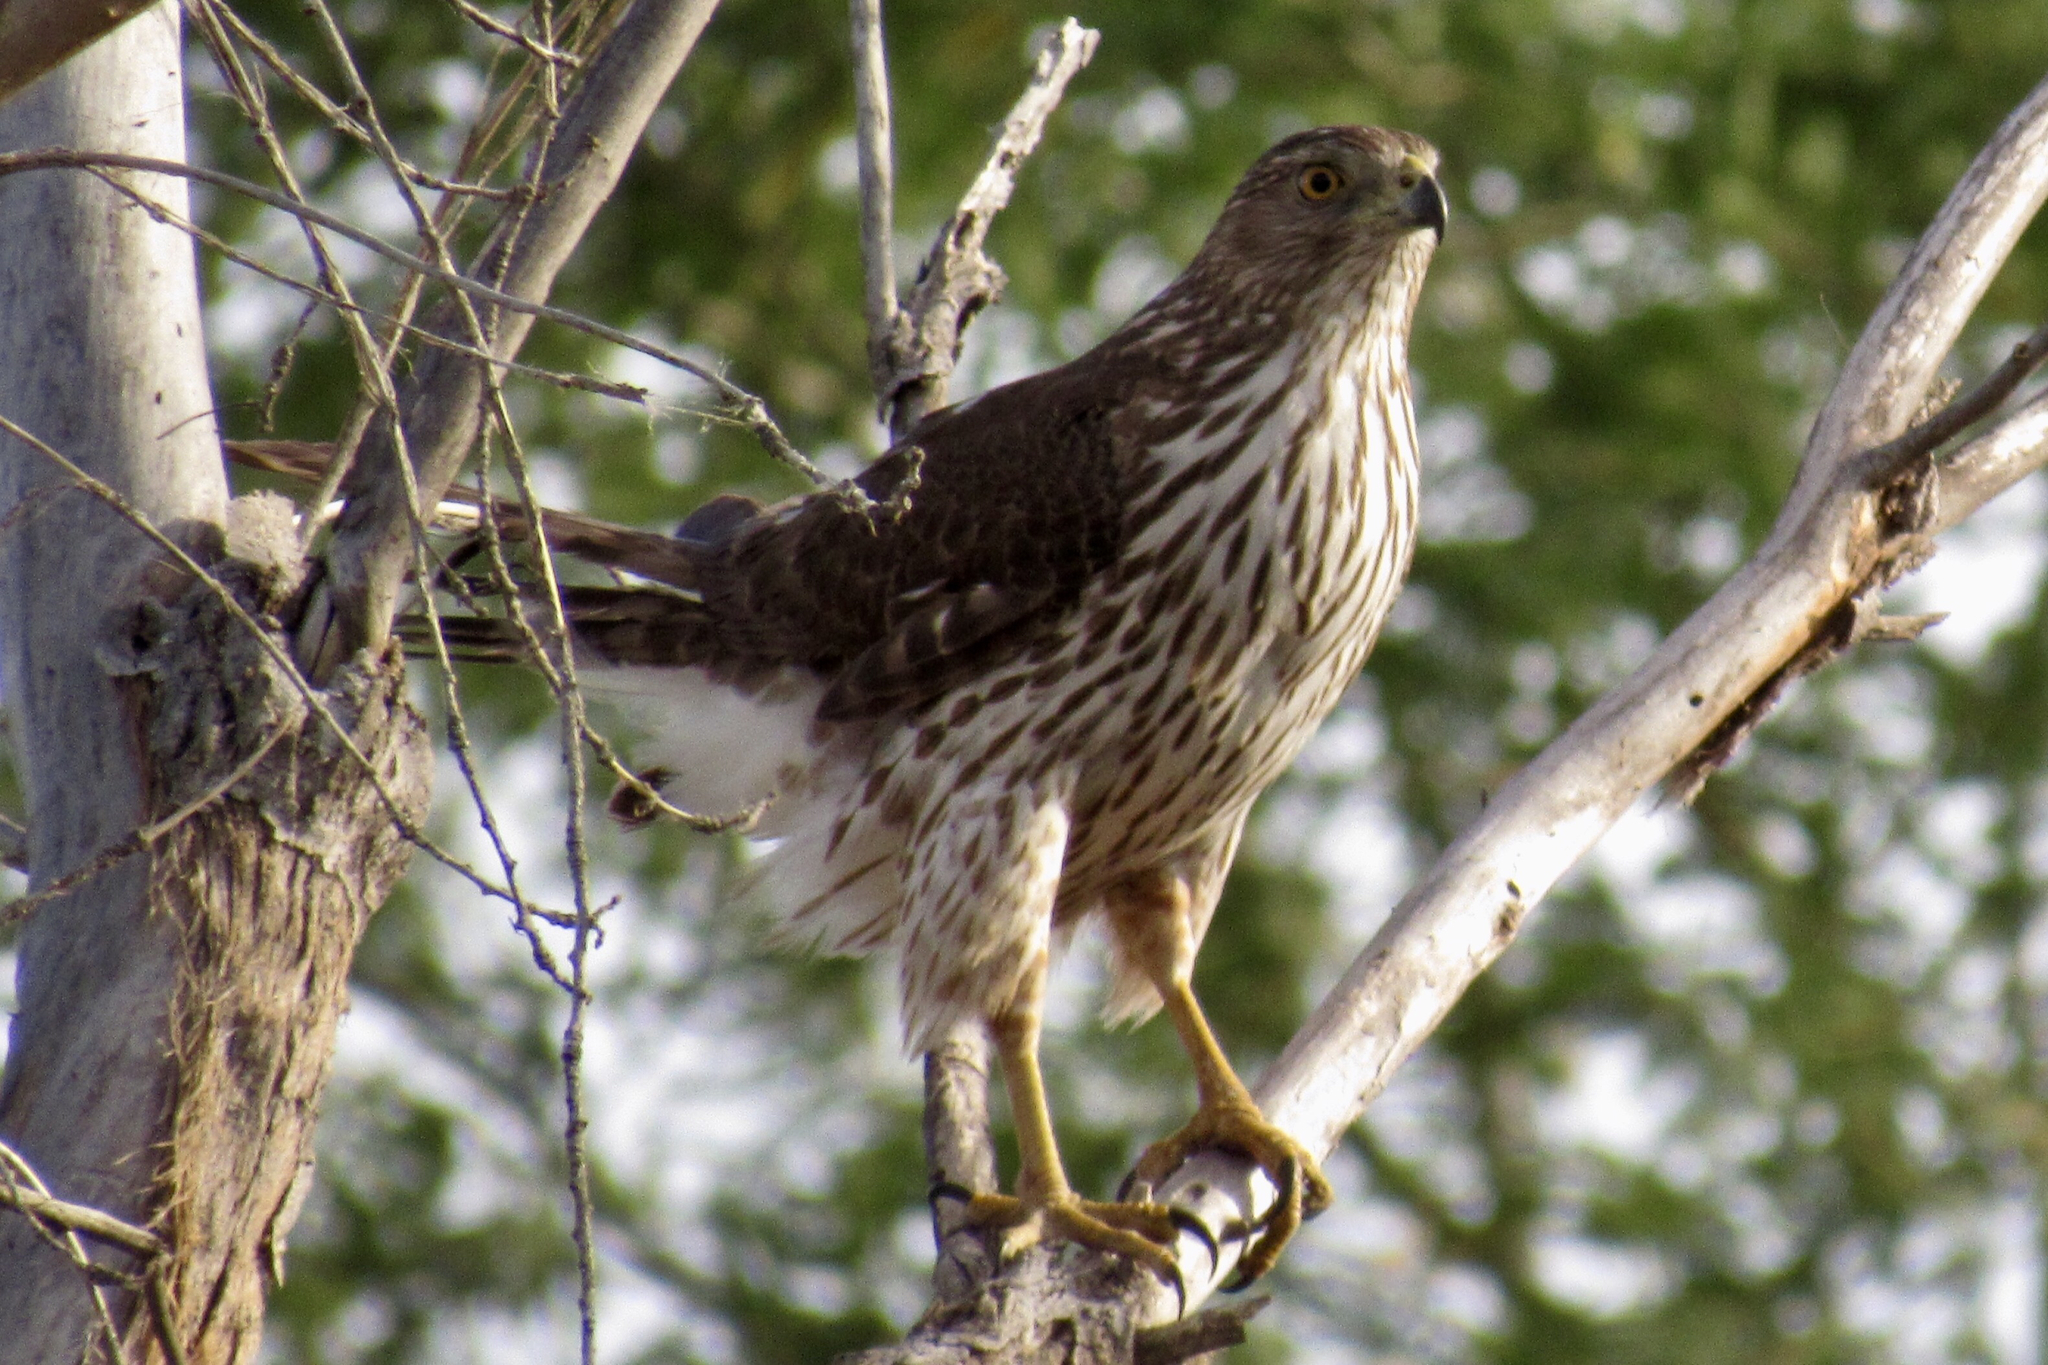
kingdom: Animalia
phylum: Chordata
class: Aves
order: Accipitriformes
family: Accipitridae
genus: Accipiter
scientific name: Accipiter cooperii
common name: Cooper's hawk
